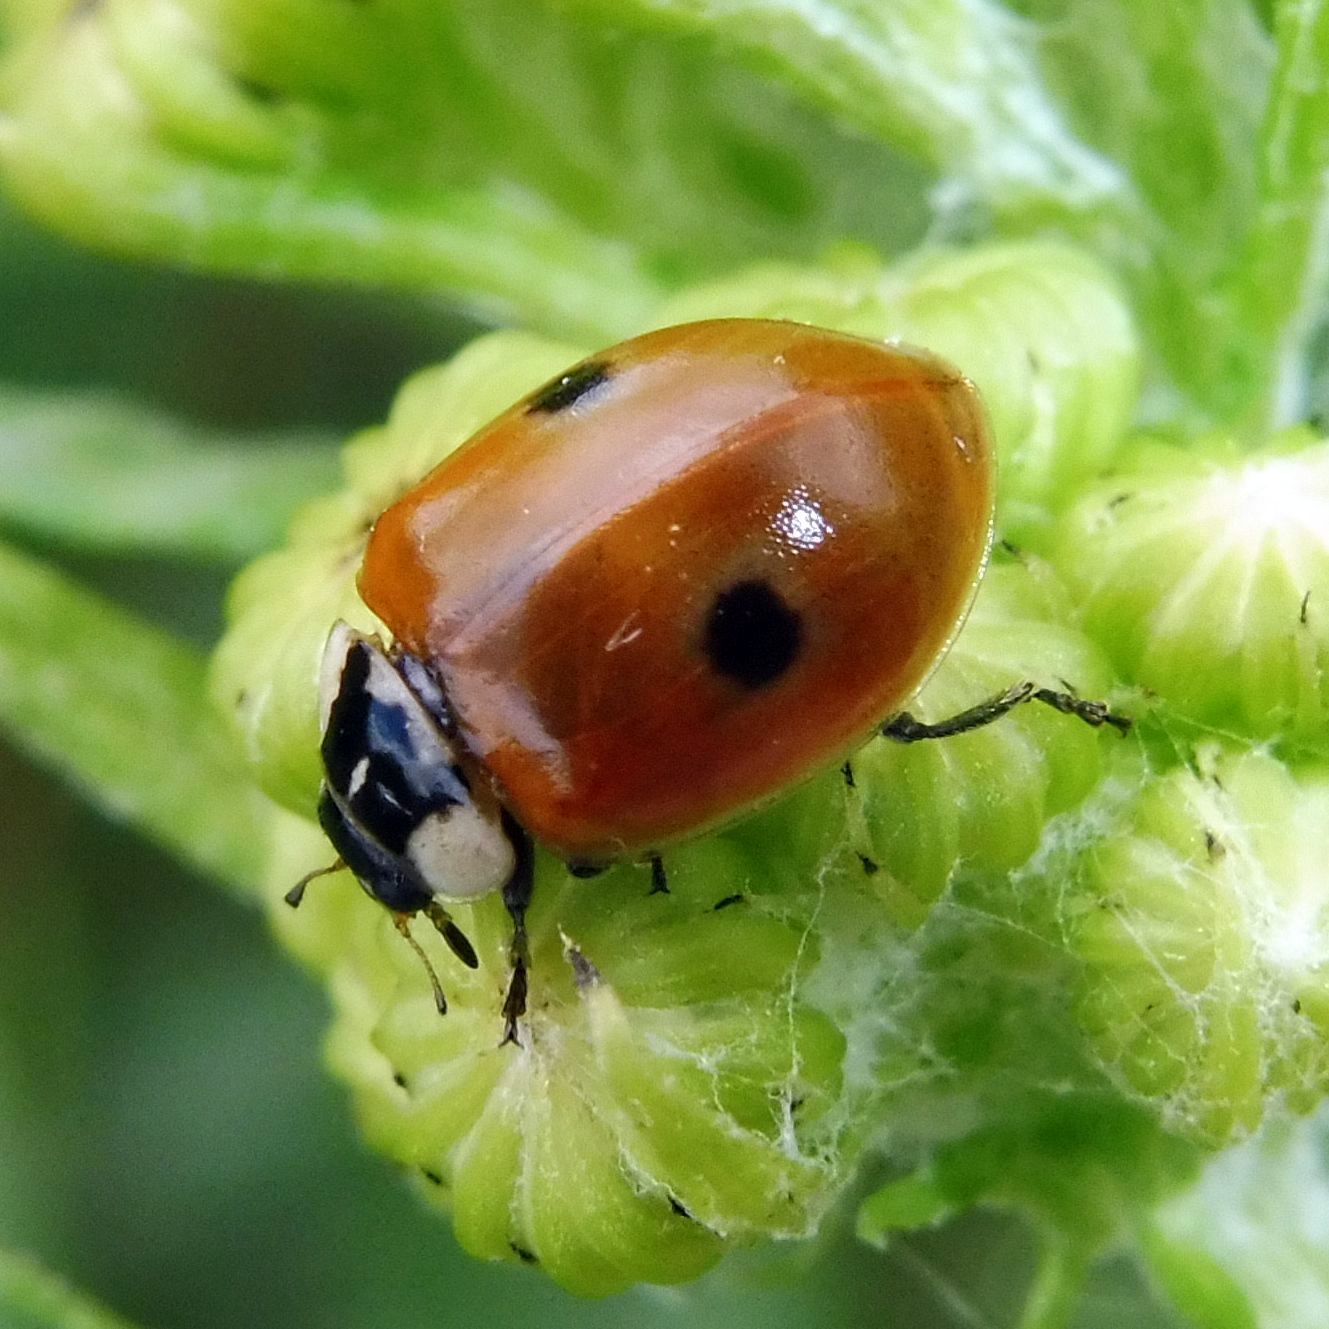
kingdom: Animalia
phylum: Arthropoda
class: Insecta
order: Coleoptera
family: Coccinellidae
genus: Adalia
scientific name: Adalia bipunctata
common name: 2-spot ladybird
